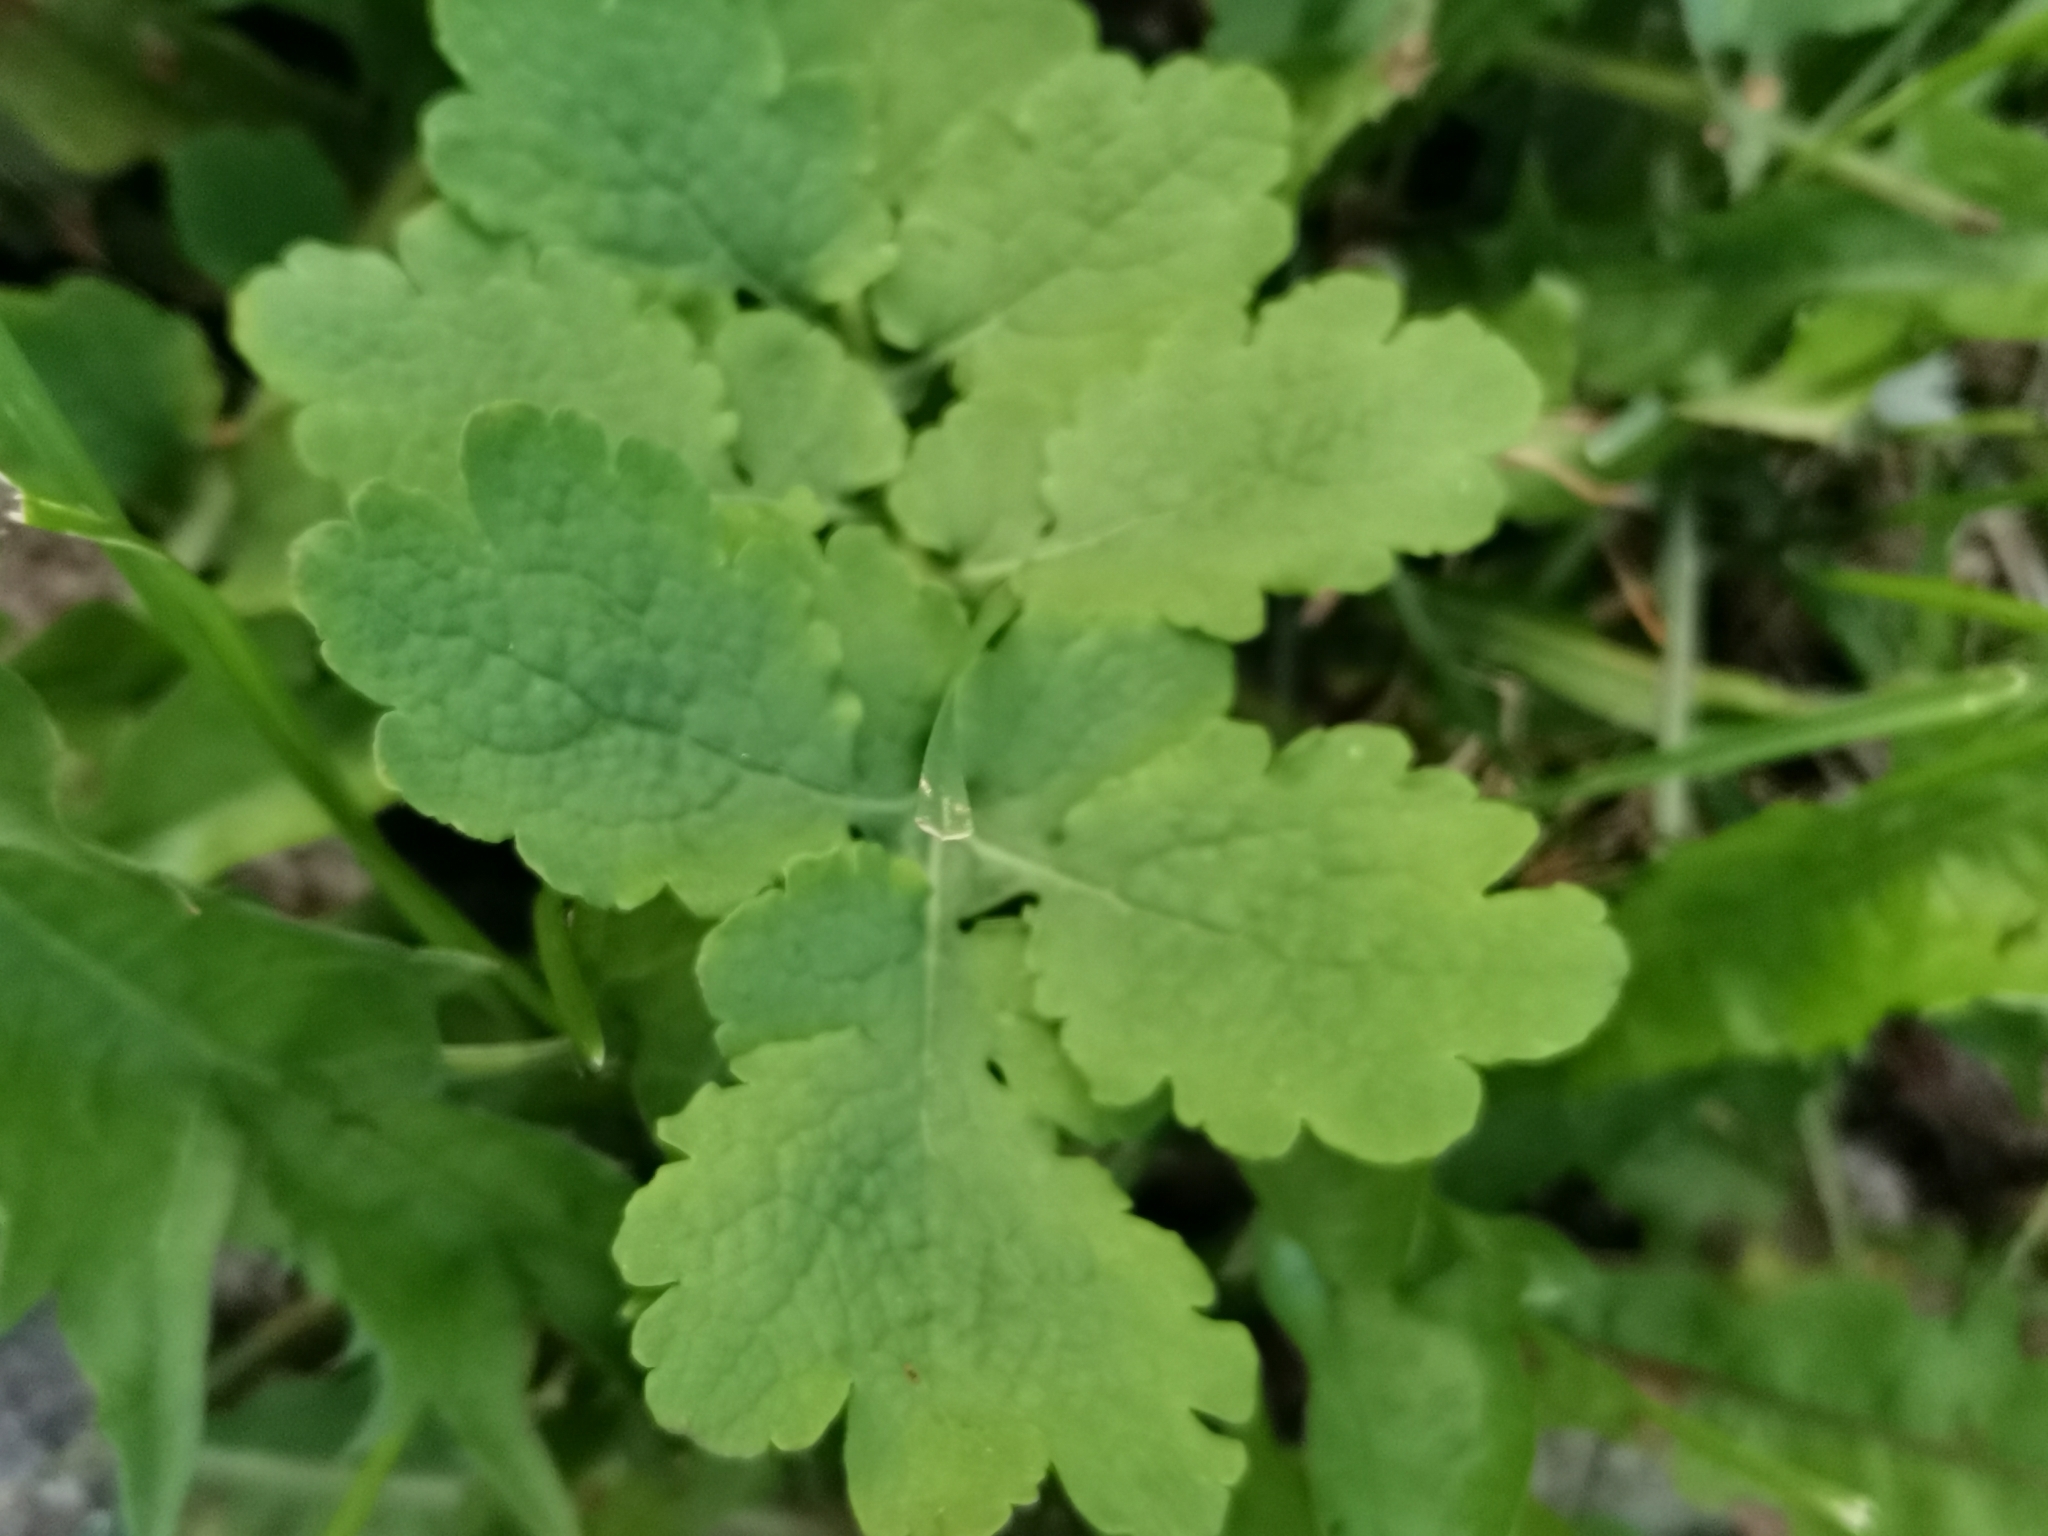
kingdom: Plantae
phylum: Tracheophyta
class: Magnoliopsida
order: Ranunculales
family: Papaveraceae
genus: Chelidonium
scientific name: Chelidonium majus
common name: Greater celandine
